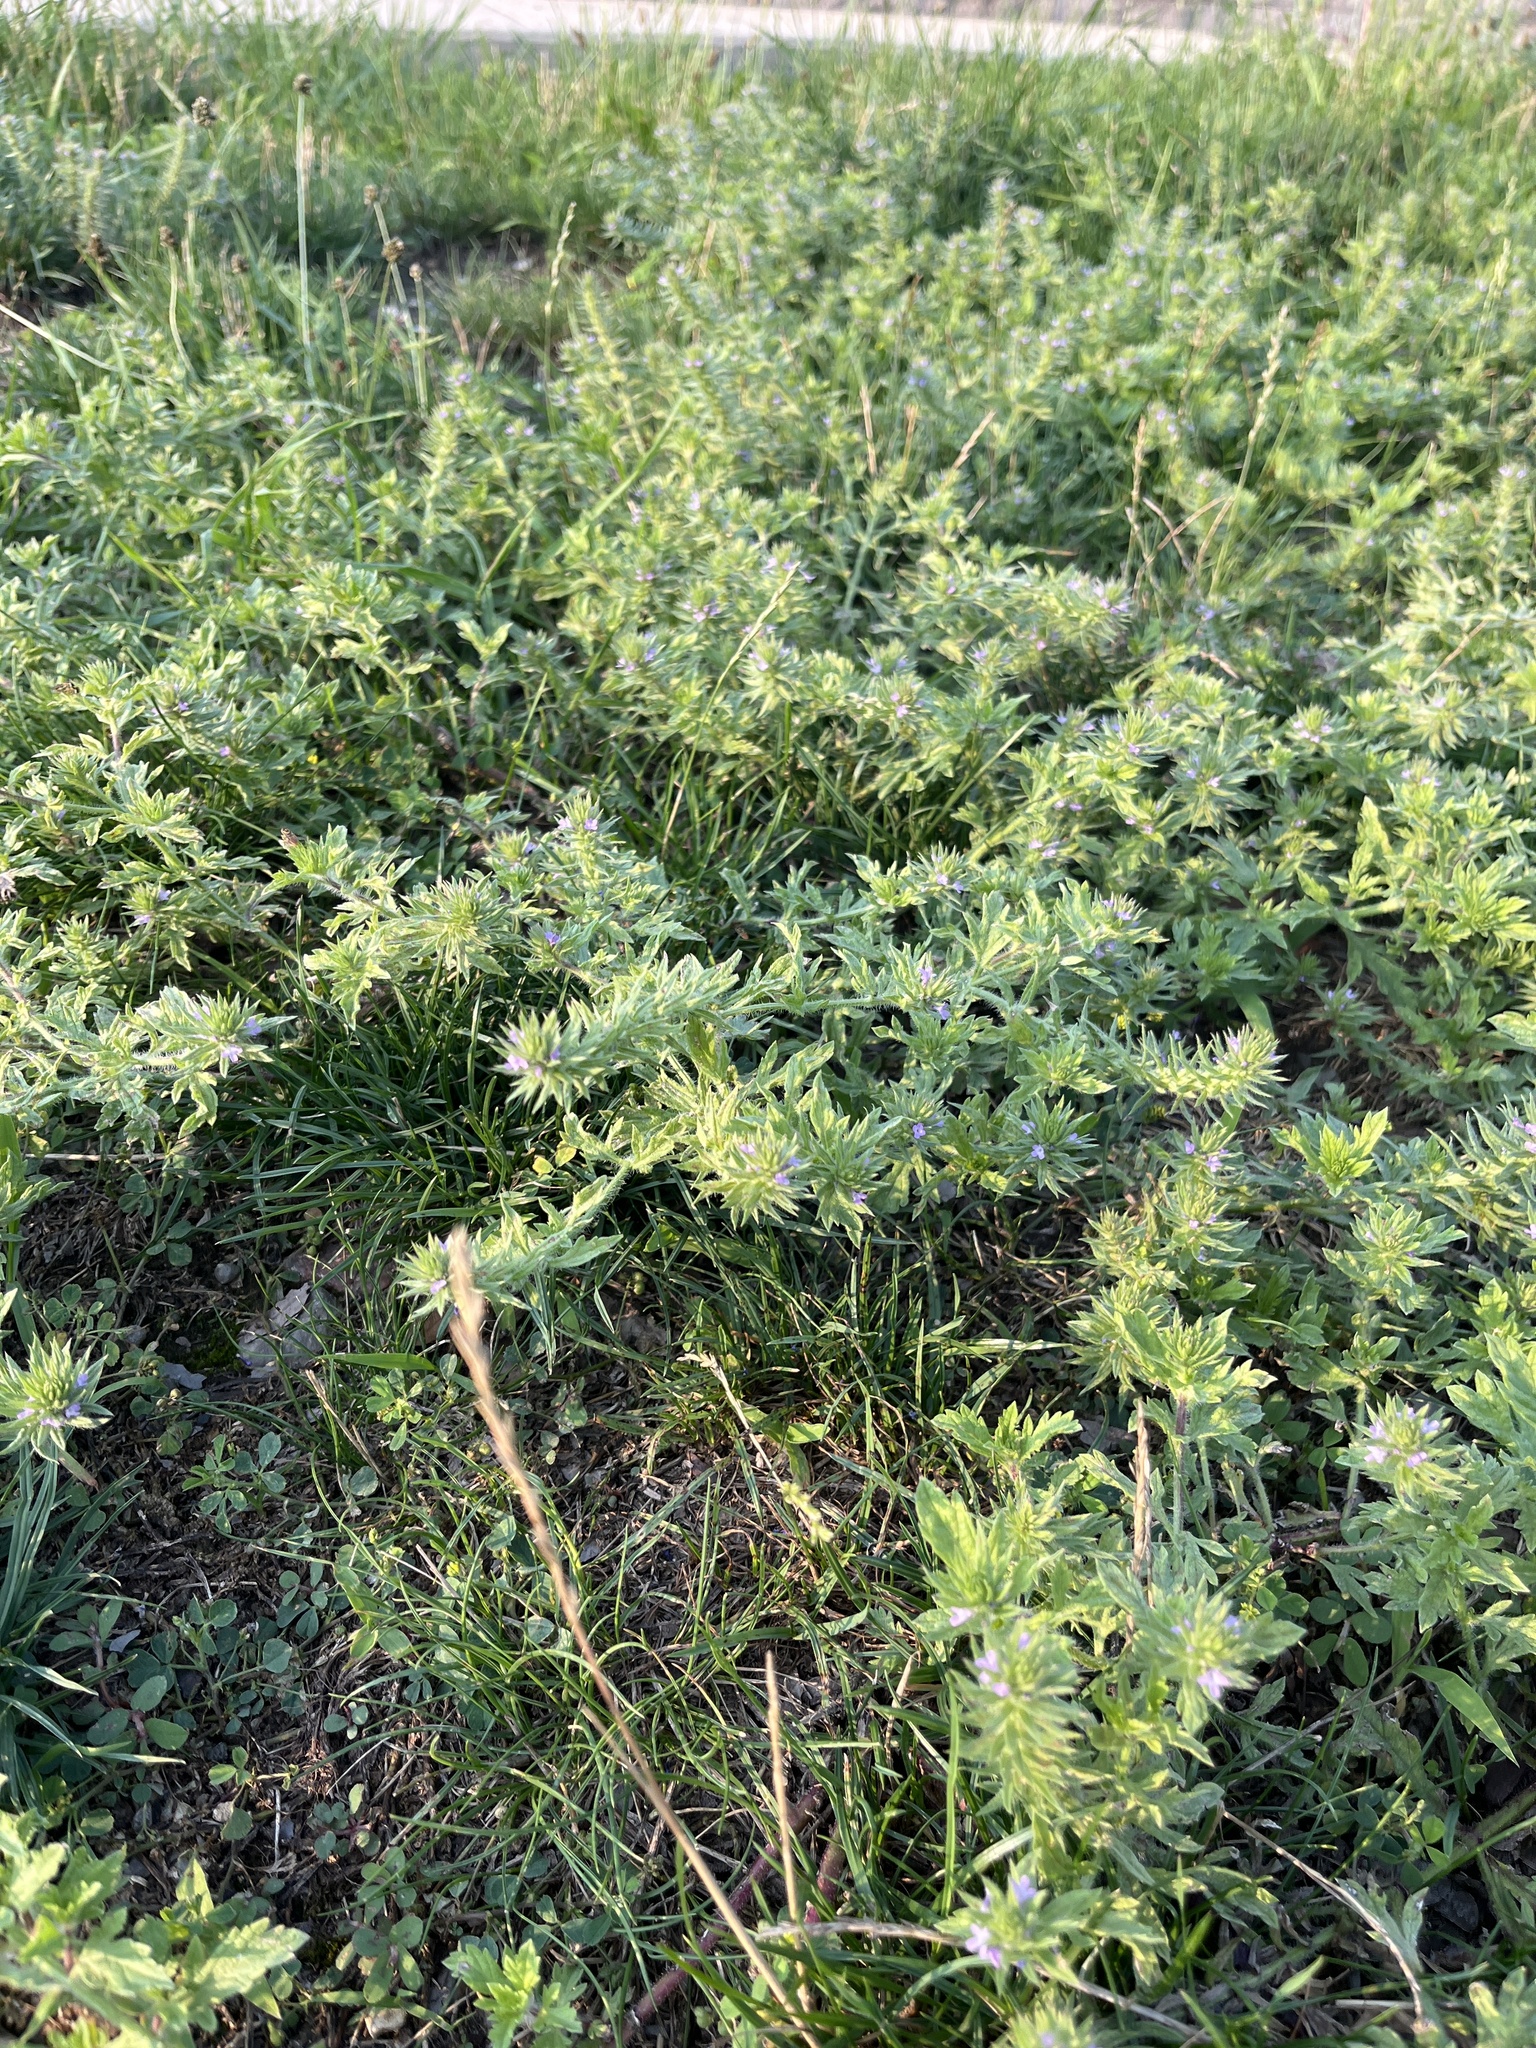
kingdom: Plantae
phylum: Tracheophyta
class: Magnoliopsida
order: Lamiales
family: Verbenaceae
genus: Verbena
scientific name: Verbena bracteata
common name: Bracted vervain
